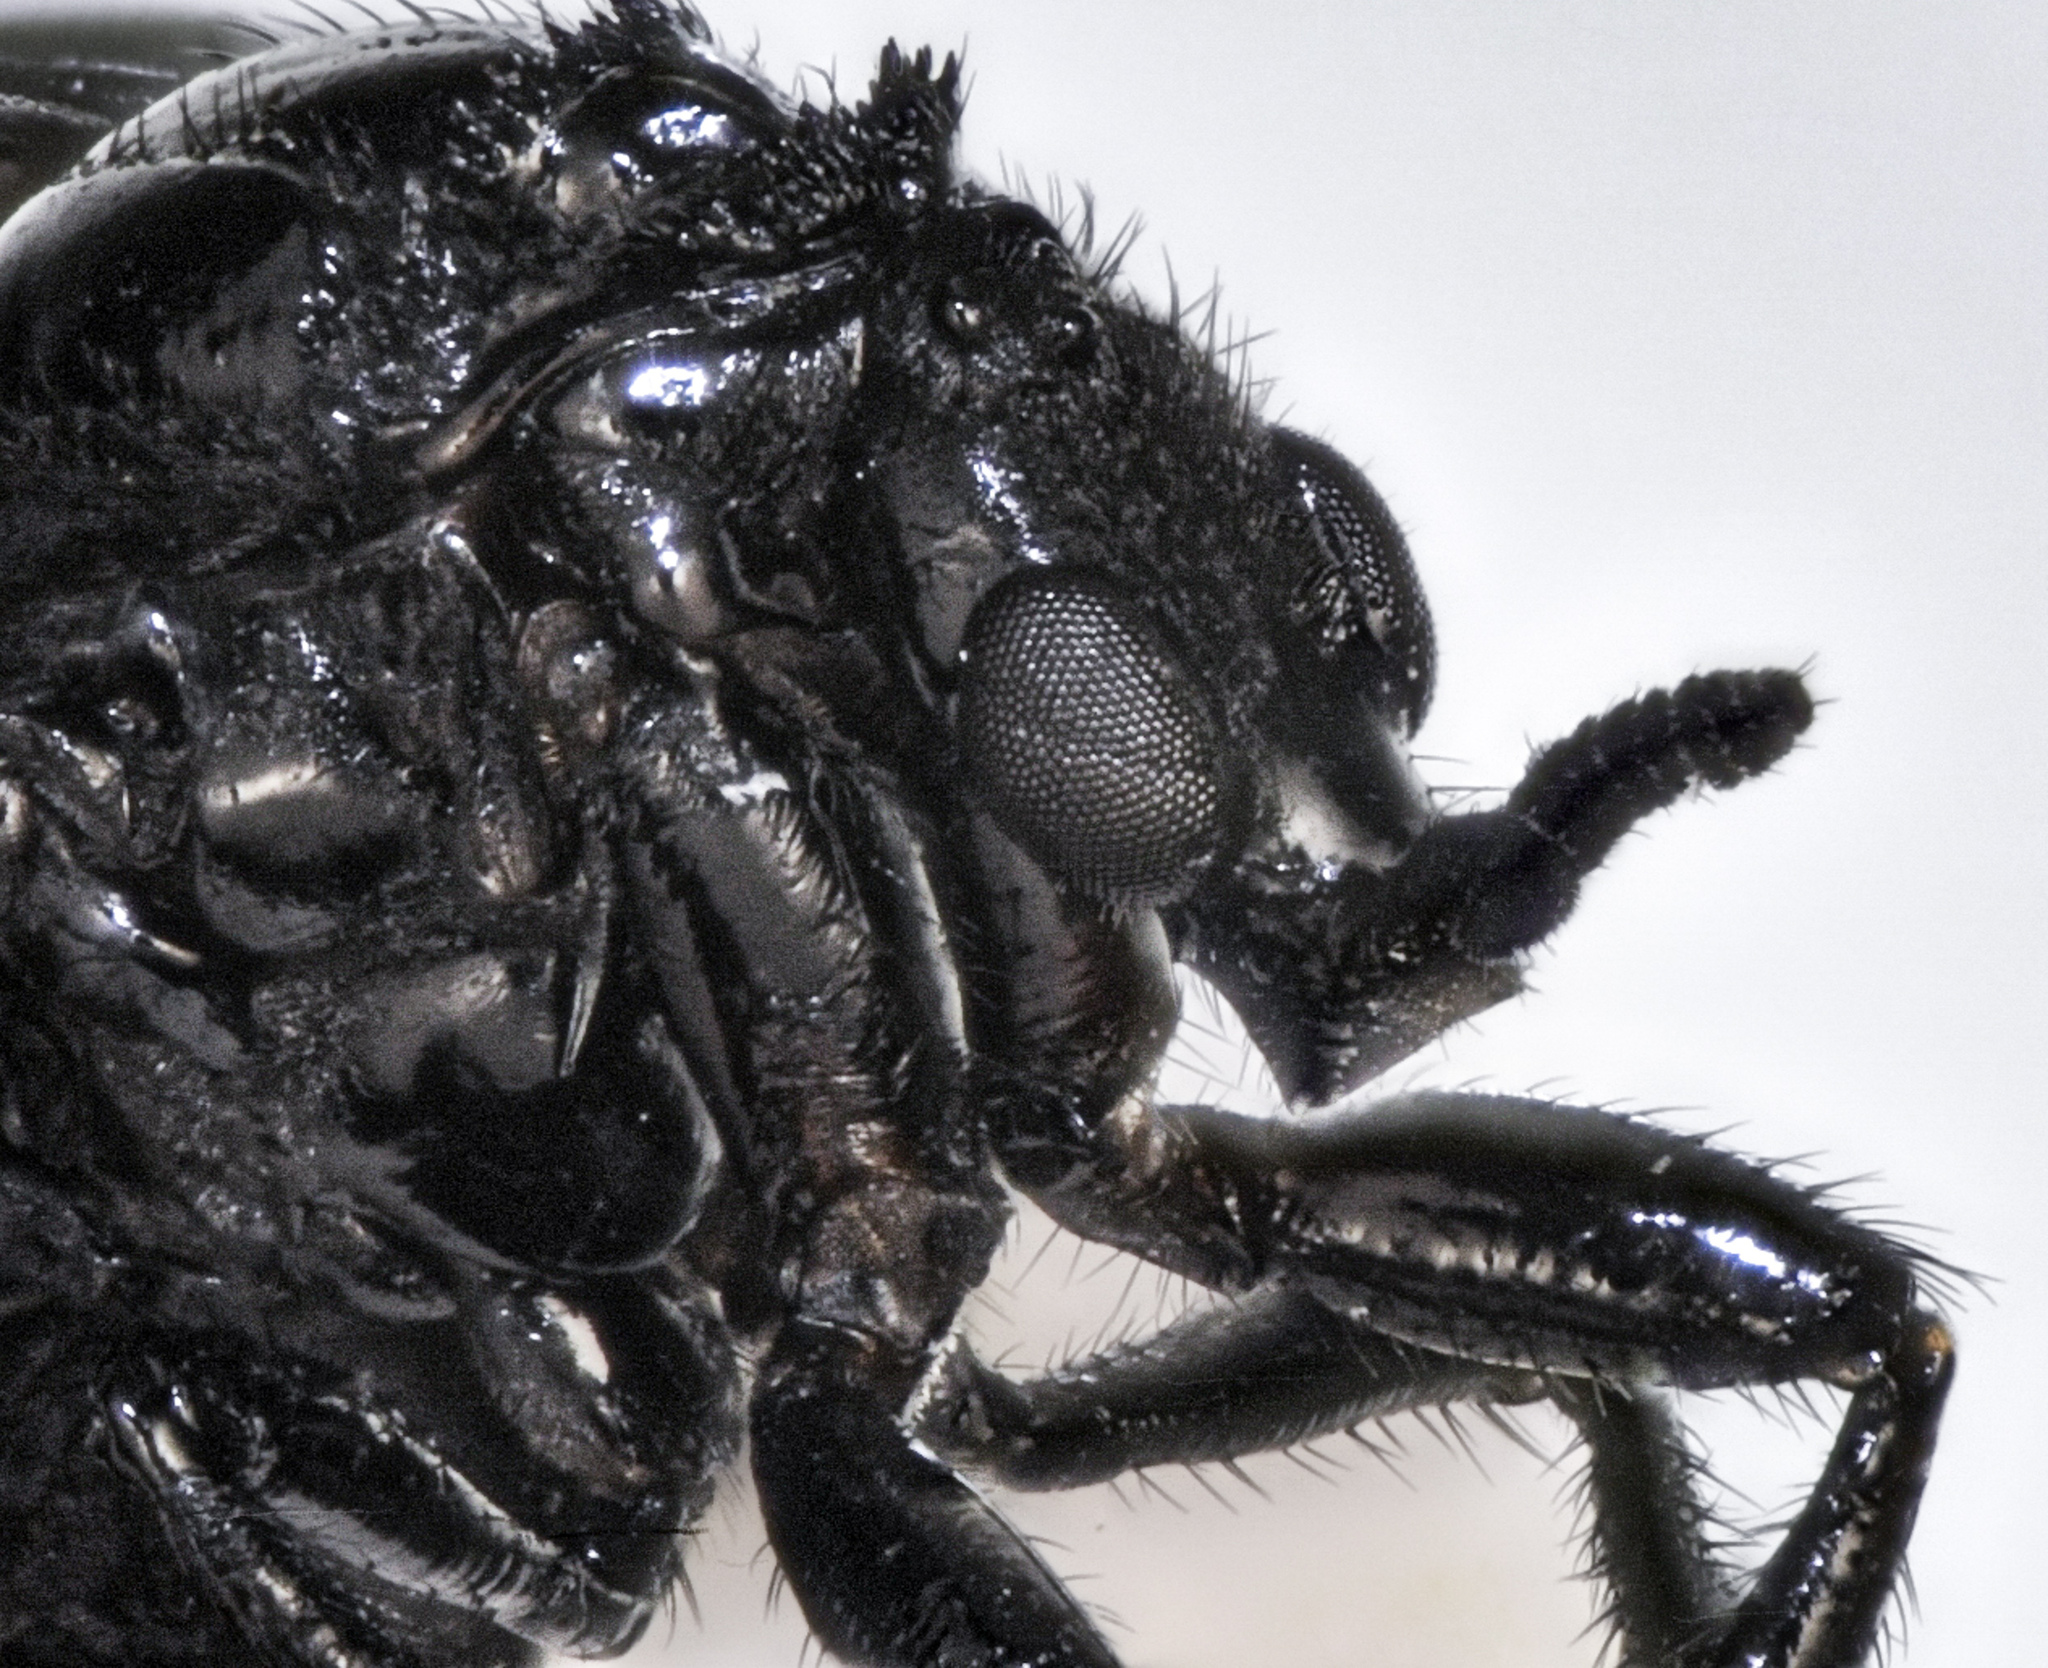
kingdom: Animalia
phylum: Arthropoda
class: Insecta
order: Diptera
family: Bibionidae
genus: Dilophus
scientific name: Dilophus orbatus
